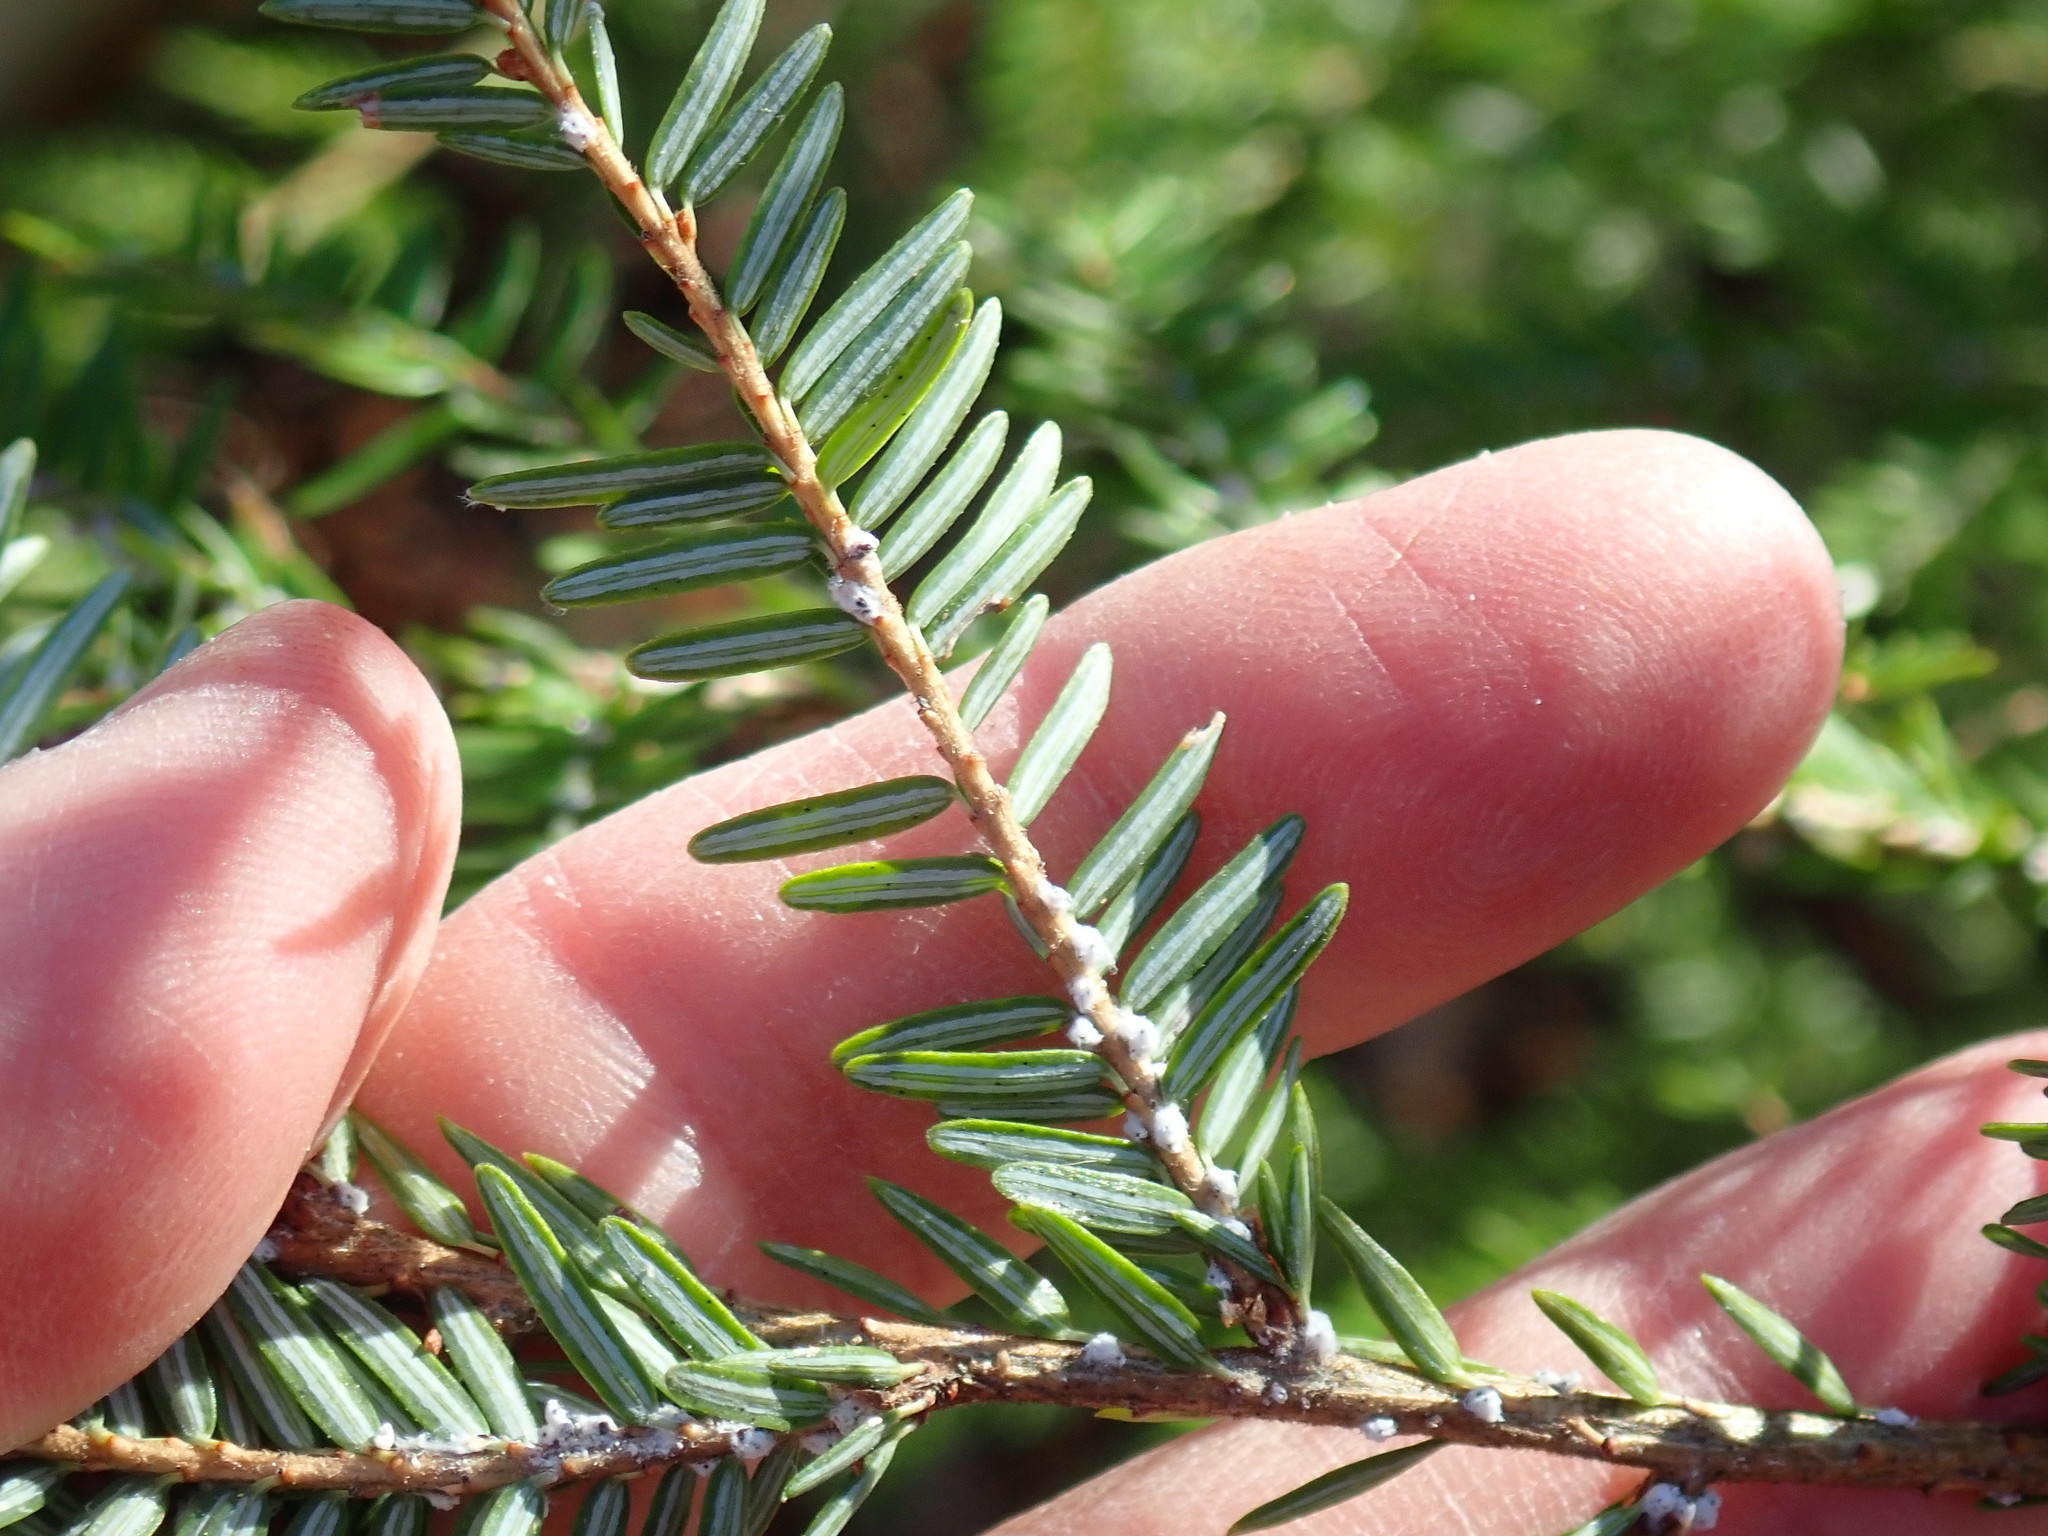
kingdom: Plantae
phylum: Tracheophyta
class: Pinopsida
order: Pinales
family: Pinaceae
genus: Tsuga
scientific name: Tsuga canadensis
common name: Eastern hemlock
